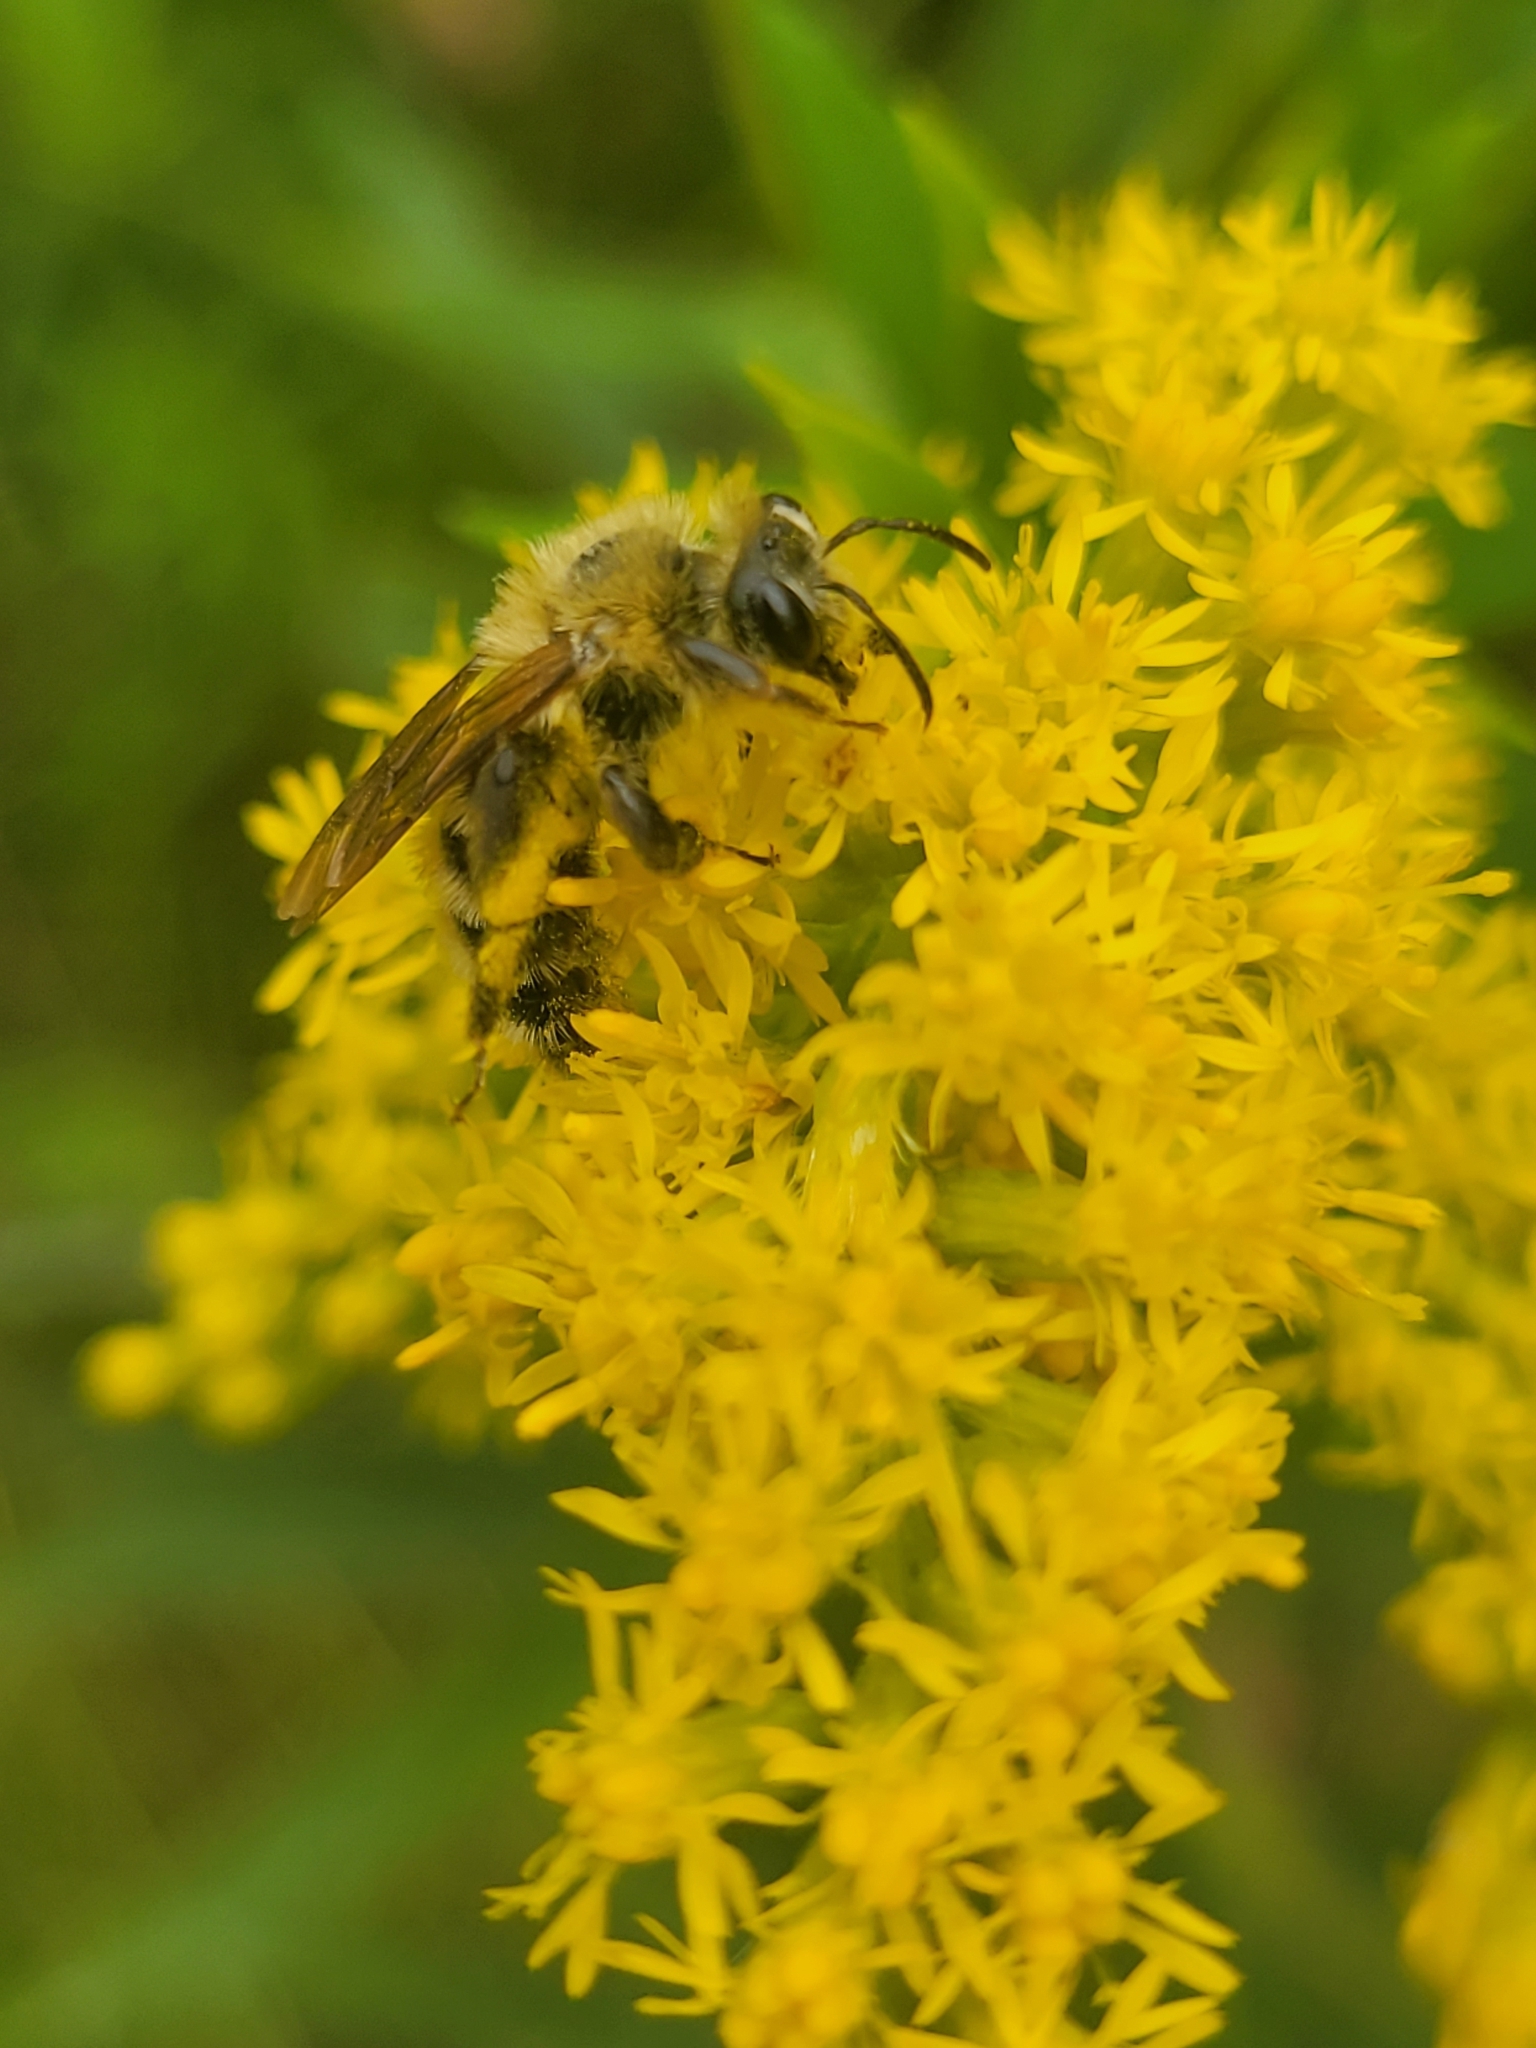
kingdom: Animalia
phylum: Arthropoda
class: Insecta
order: Hymenoptera
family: Andrenidae
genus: Andrena
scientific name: Andrena hirticincta
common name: Hairy-banded mining bee
